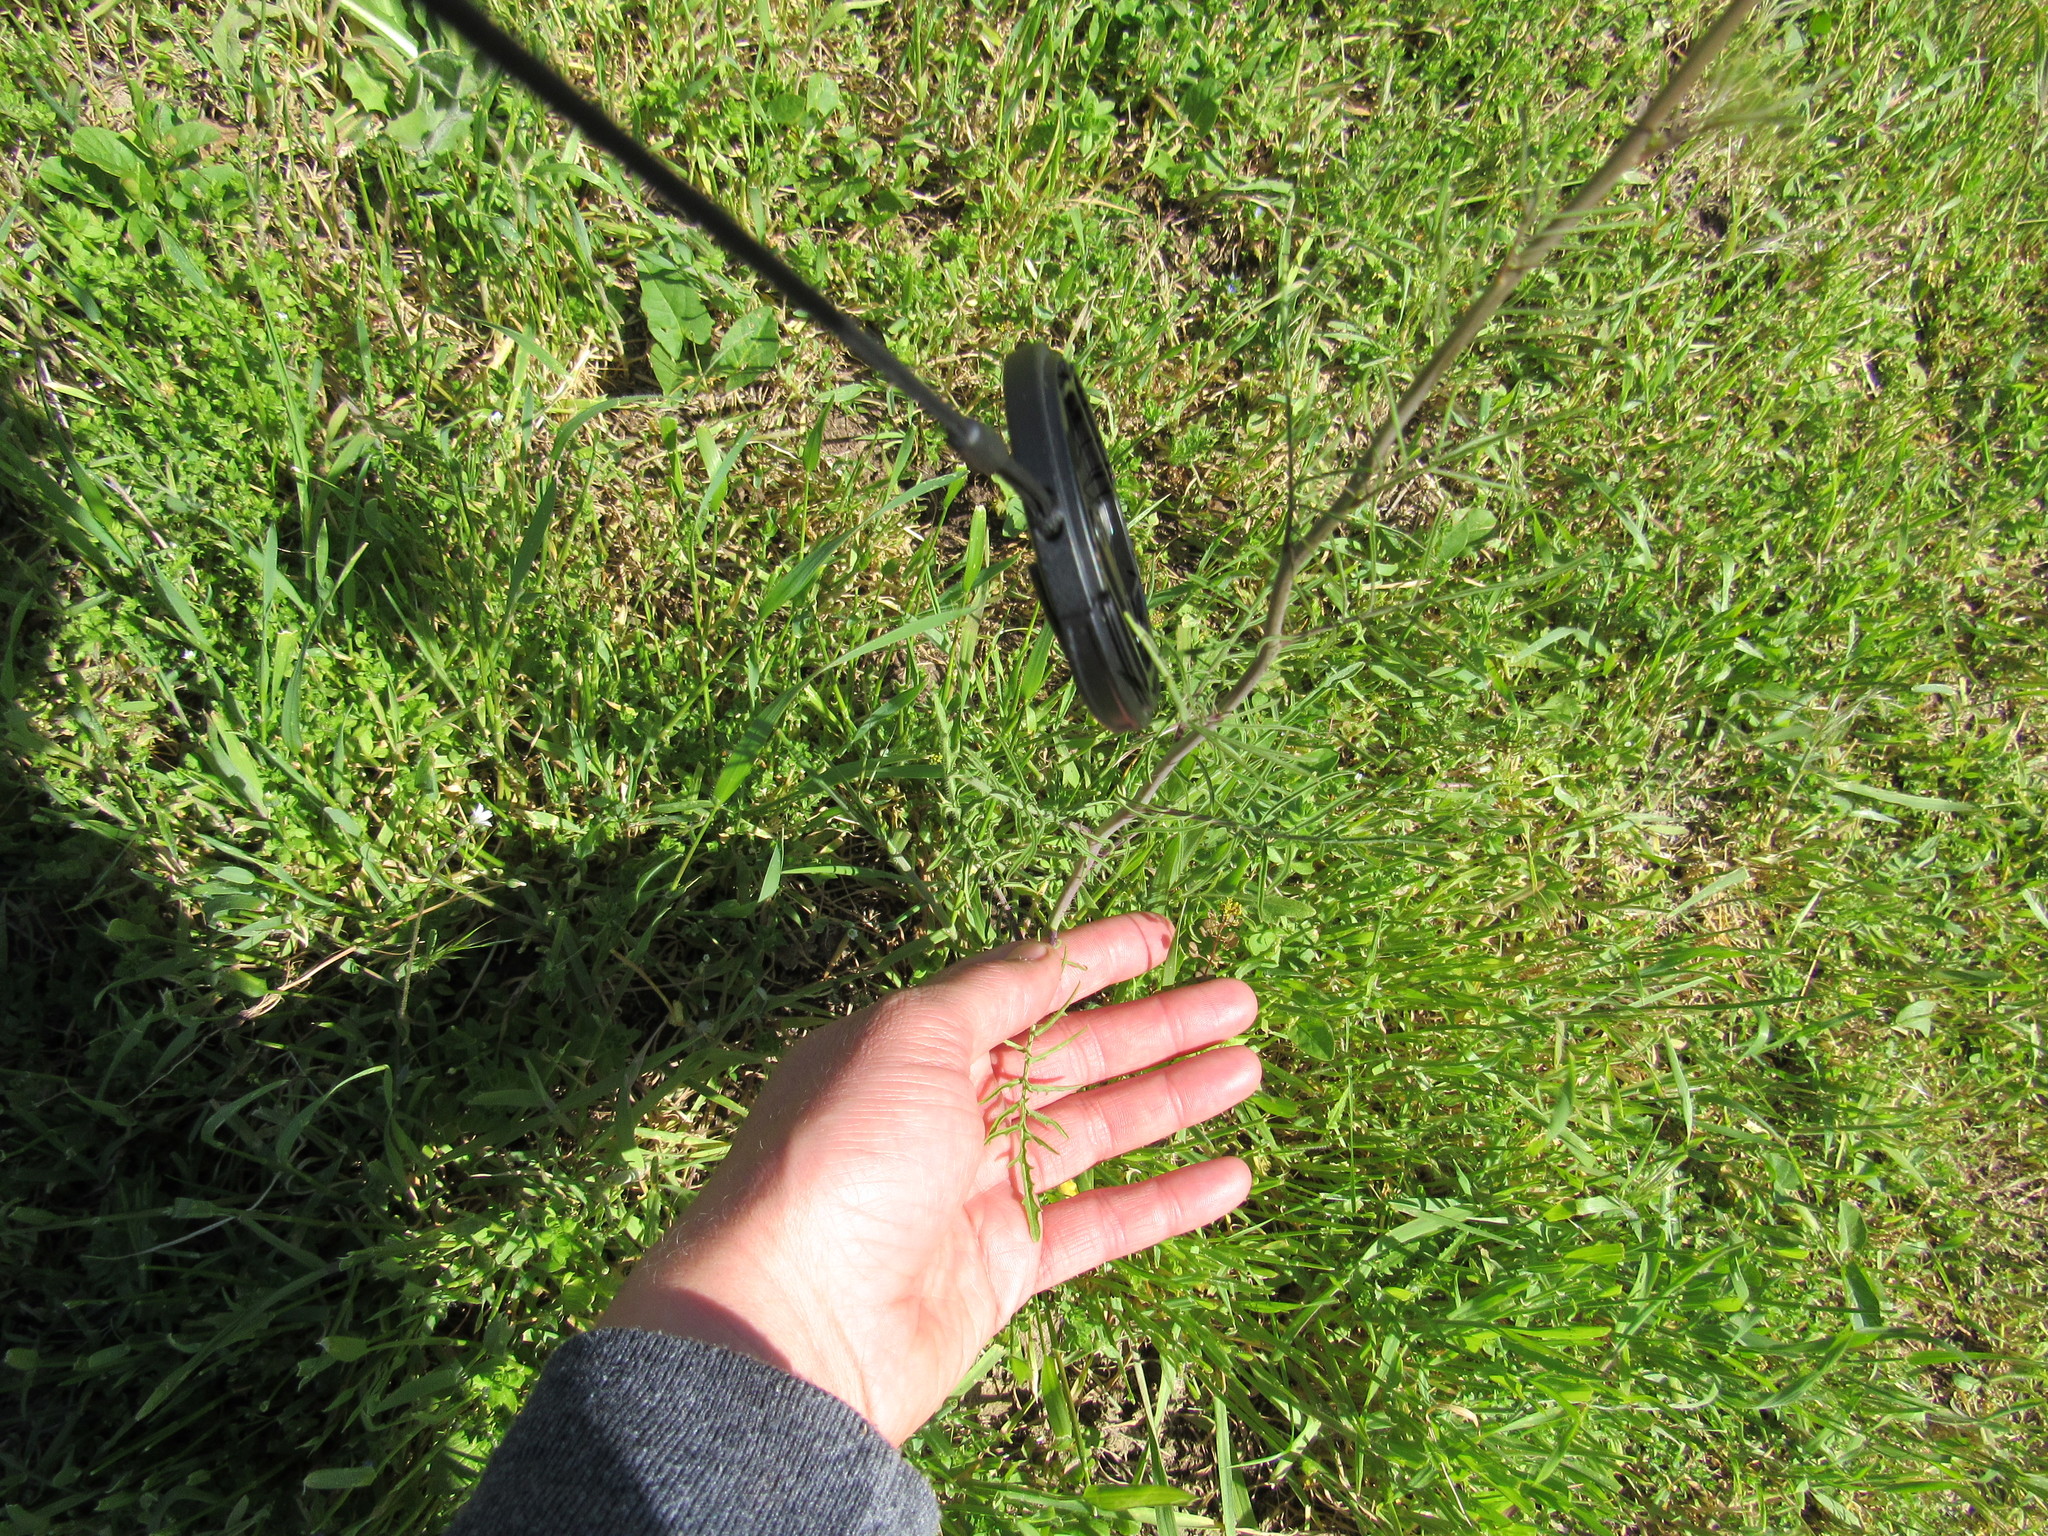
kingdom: Plantae
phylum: Tracheophyta
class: Magnoliopsida
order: Brassicales
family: Brassicaceae
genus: Sisymbrium
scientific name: Sisymbrium altissimum
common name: Tall rocket
